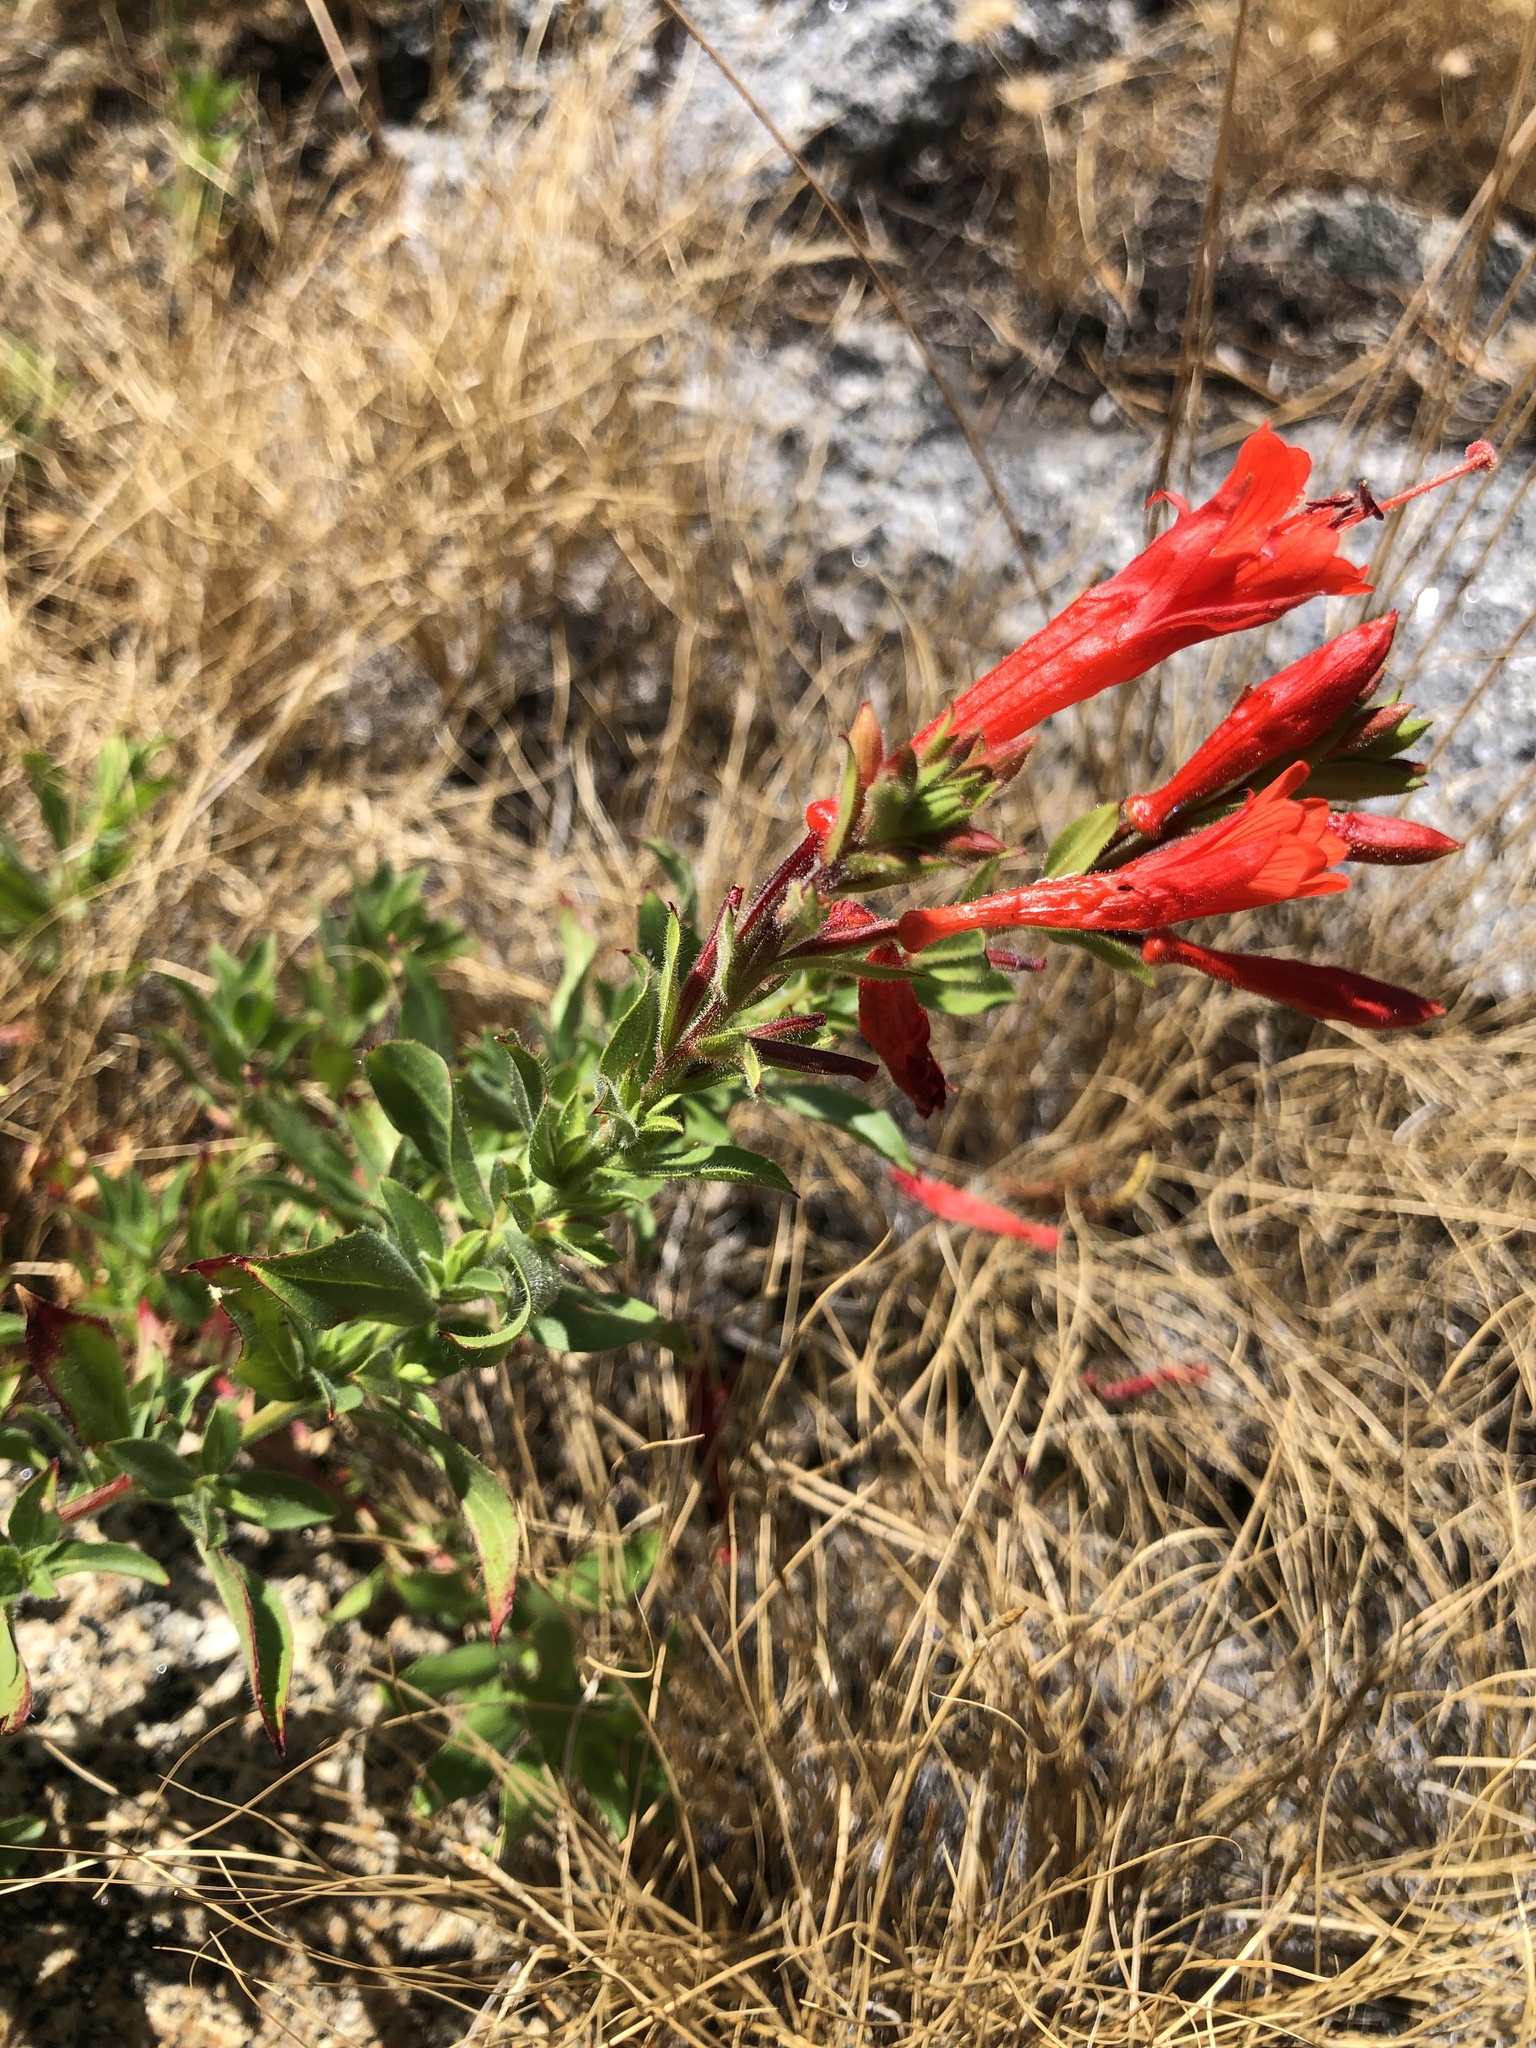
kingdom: Plantae
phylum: Tracheophyta
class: Magnoliopsida
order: Myrtales
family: Onagraceae
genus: Epilobium
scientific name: Epilobium canum
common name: California-fuchsia
